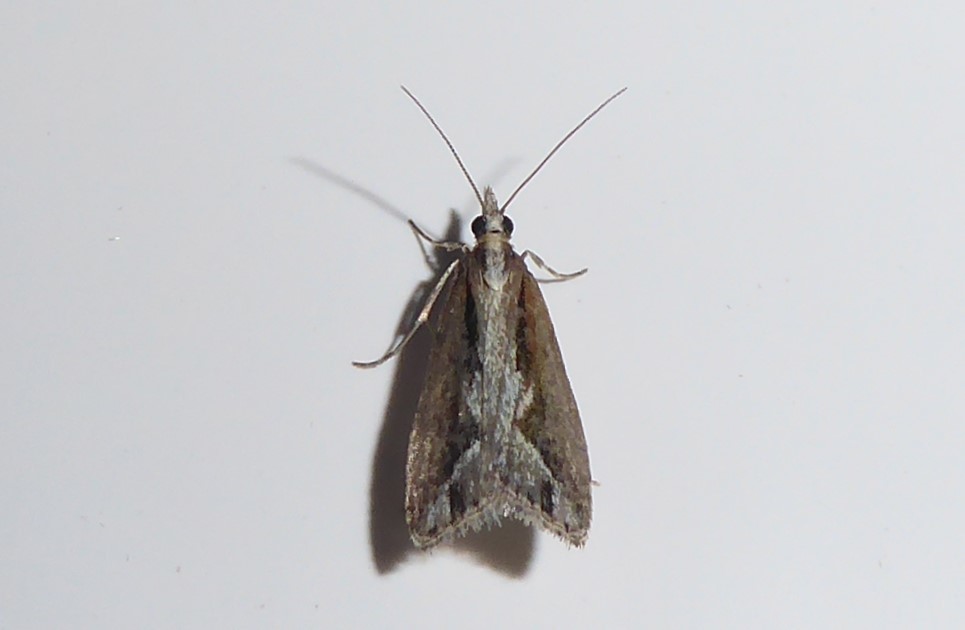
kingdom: Animalia
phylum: Arthropoda
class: Insecta
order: Lepidoptera
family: Crambidae
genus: Eudonia
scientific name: Eudonia steropaea
